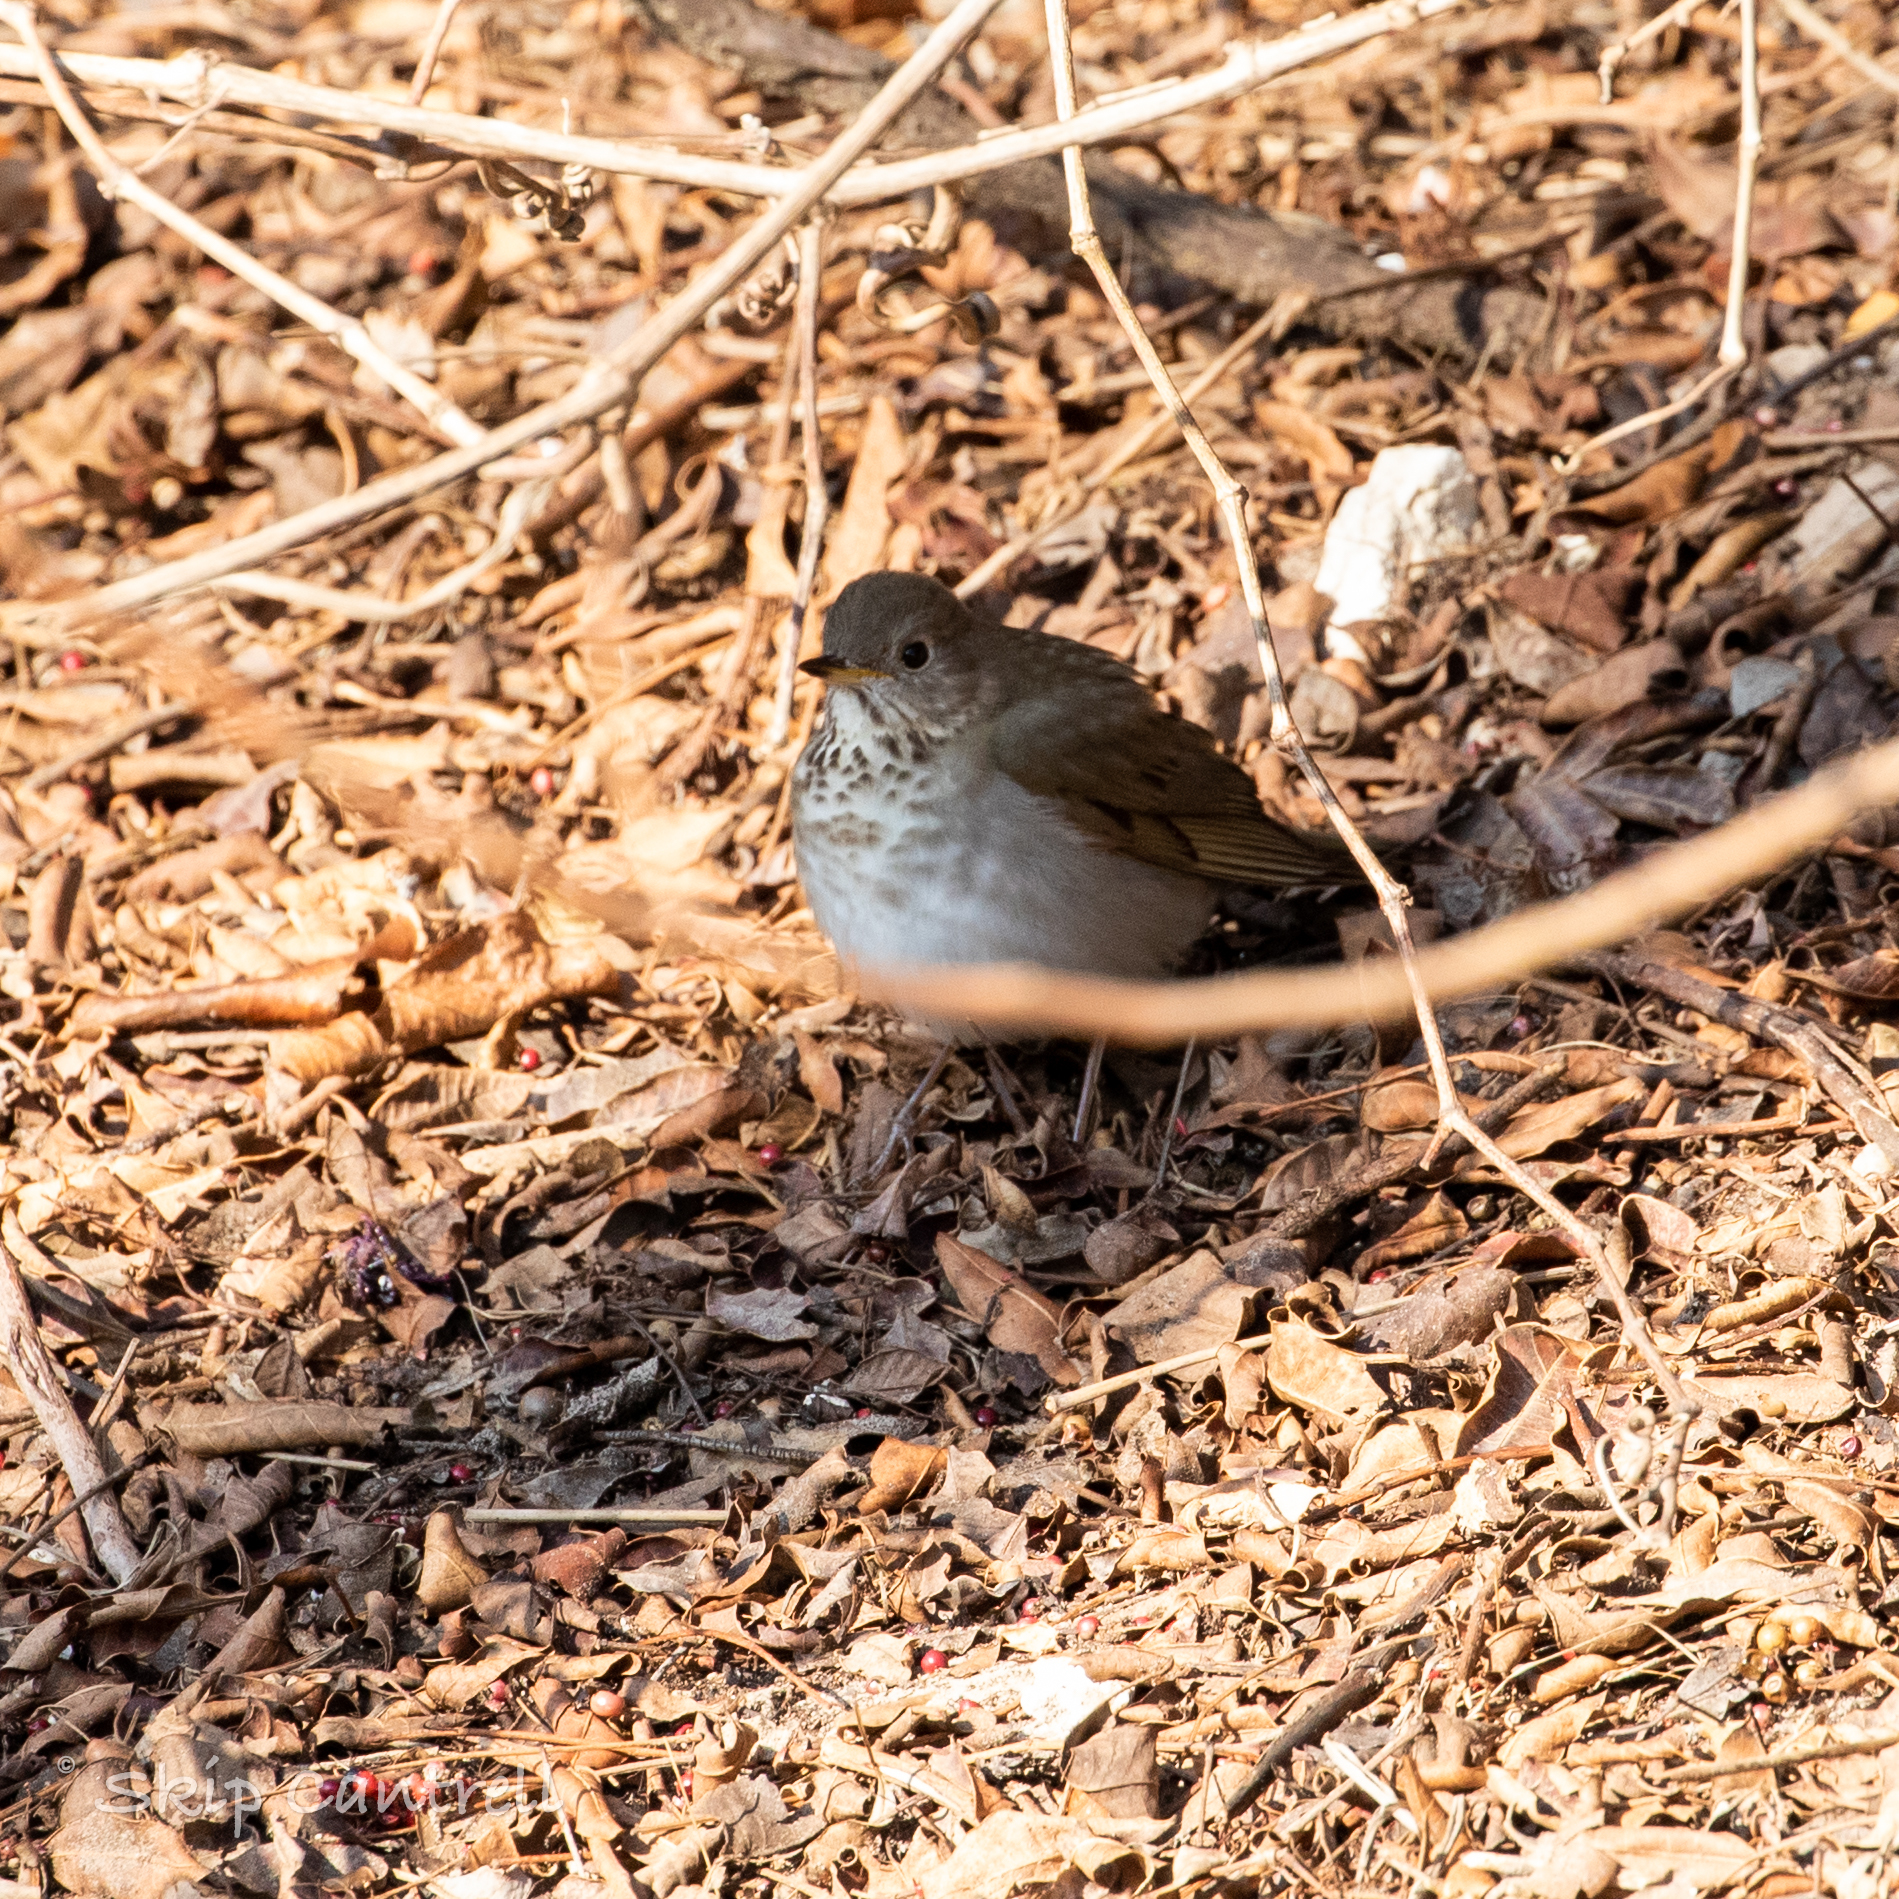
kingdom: Animalia
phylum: Chordata
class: Aves
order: Passeriformes
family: Turdidae
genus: Catharus
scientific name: Catharus minimus
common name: Grey-cheeked thrush
